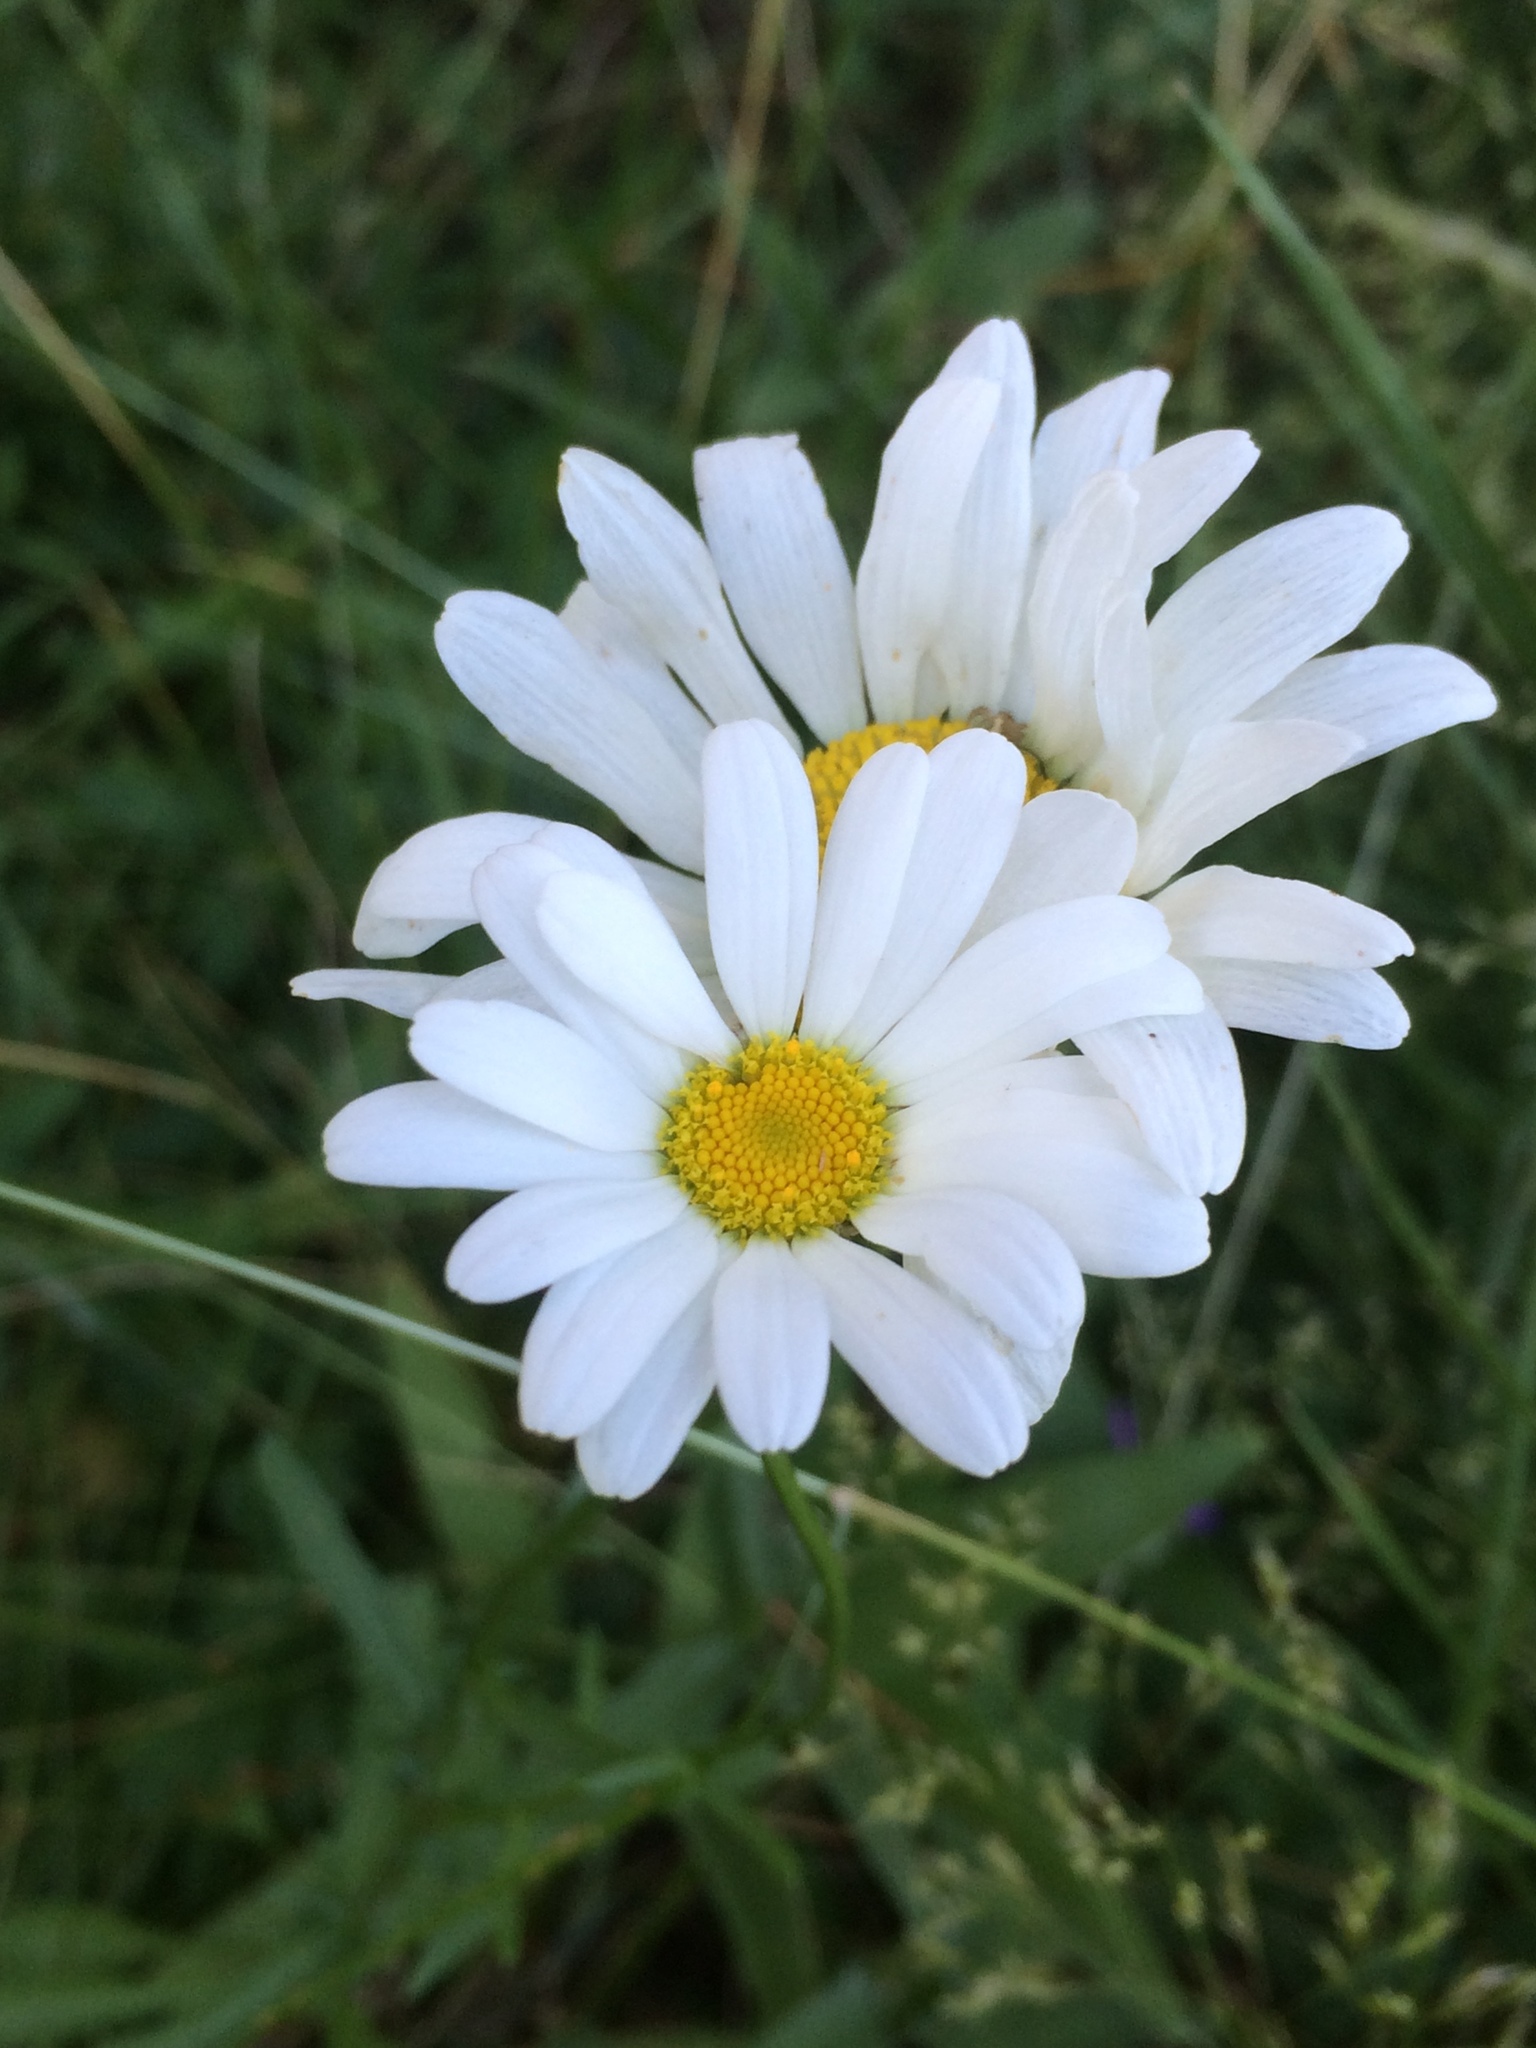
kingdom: Plantae
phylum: Tracheophyta
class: Magnoliopsida
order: Asterales
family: Asteraceae
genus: Leucanthemum
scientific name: Leucanthemum vulgare
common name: Oxeye daisy
